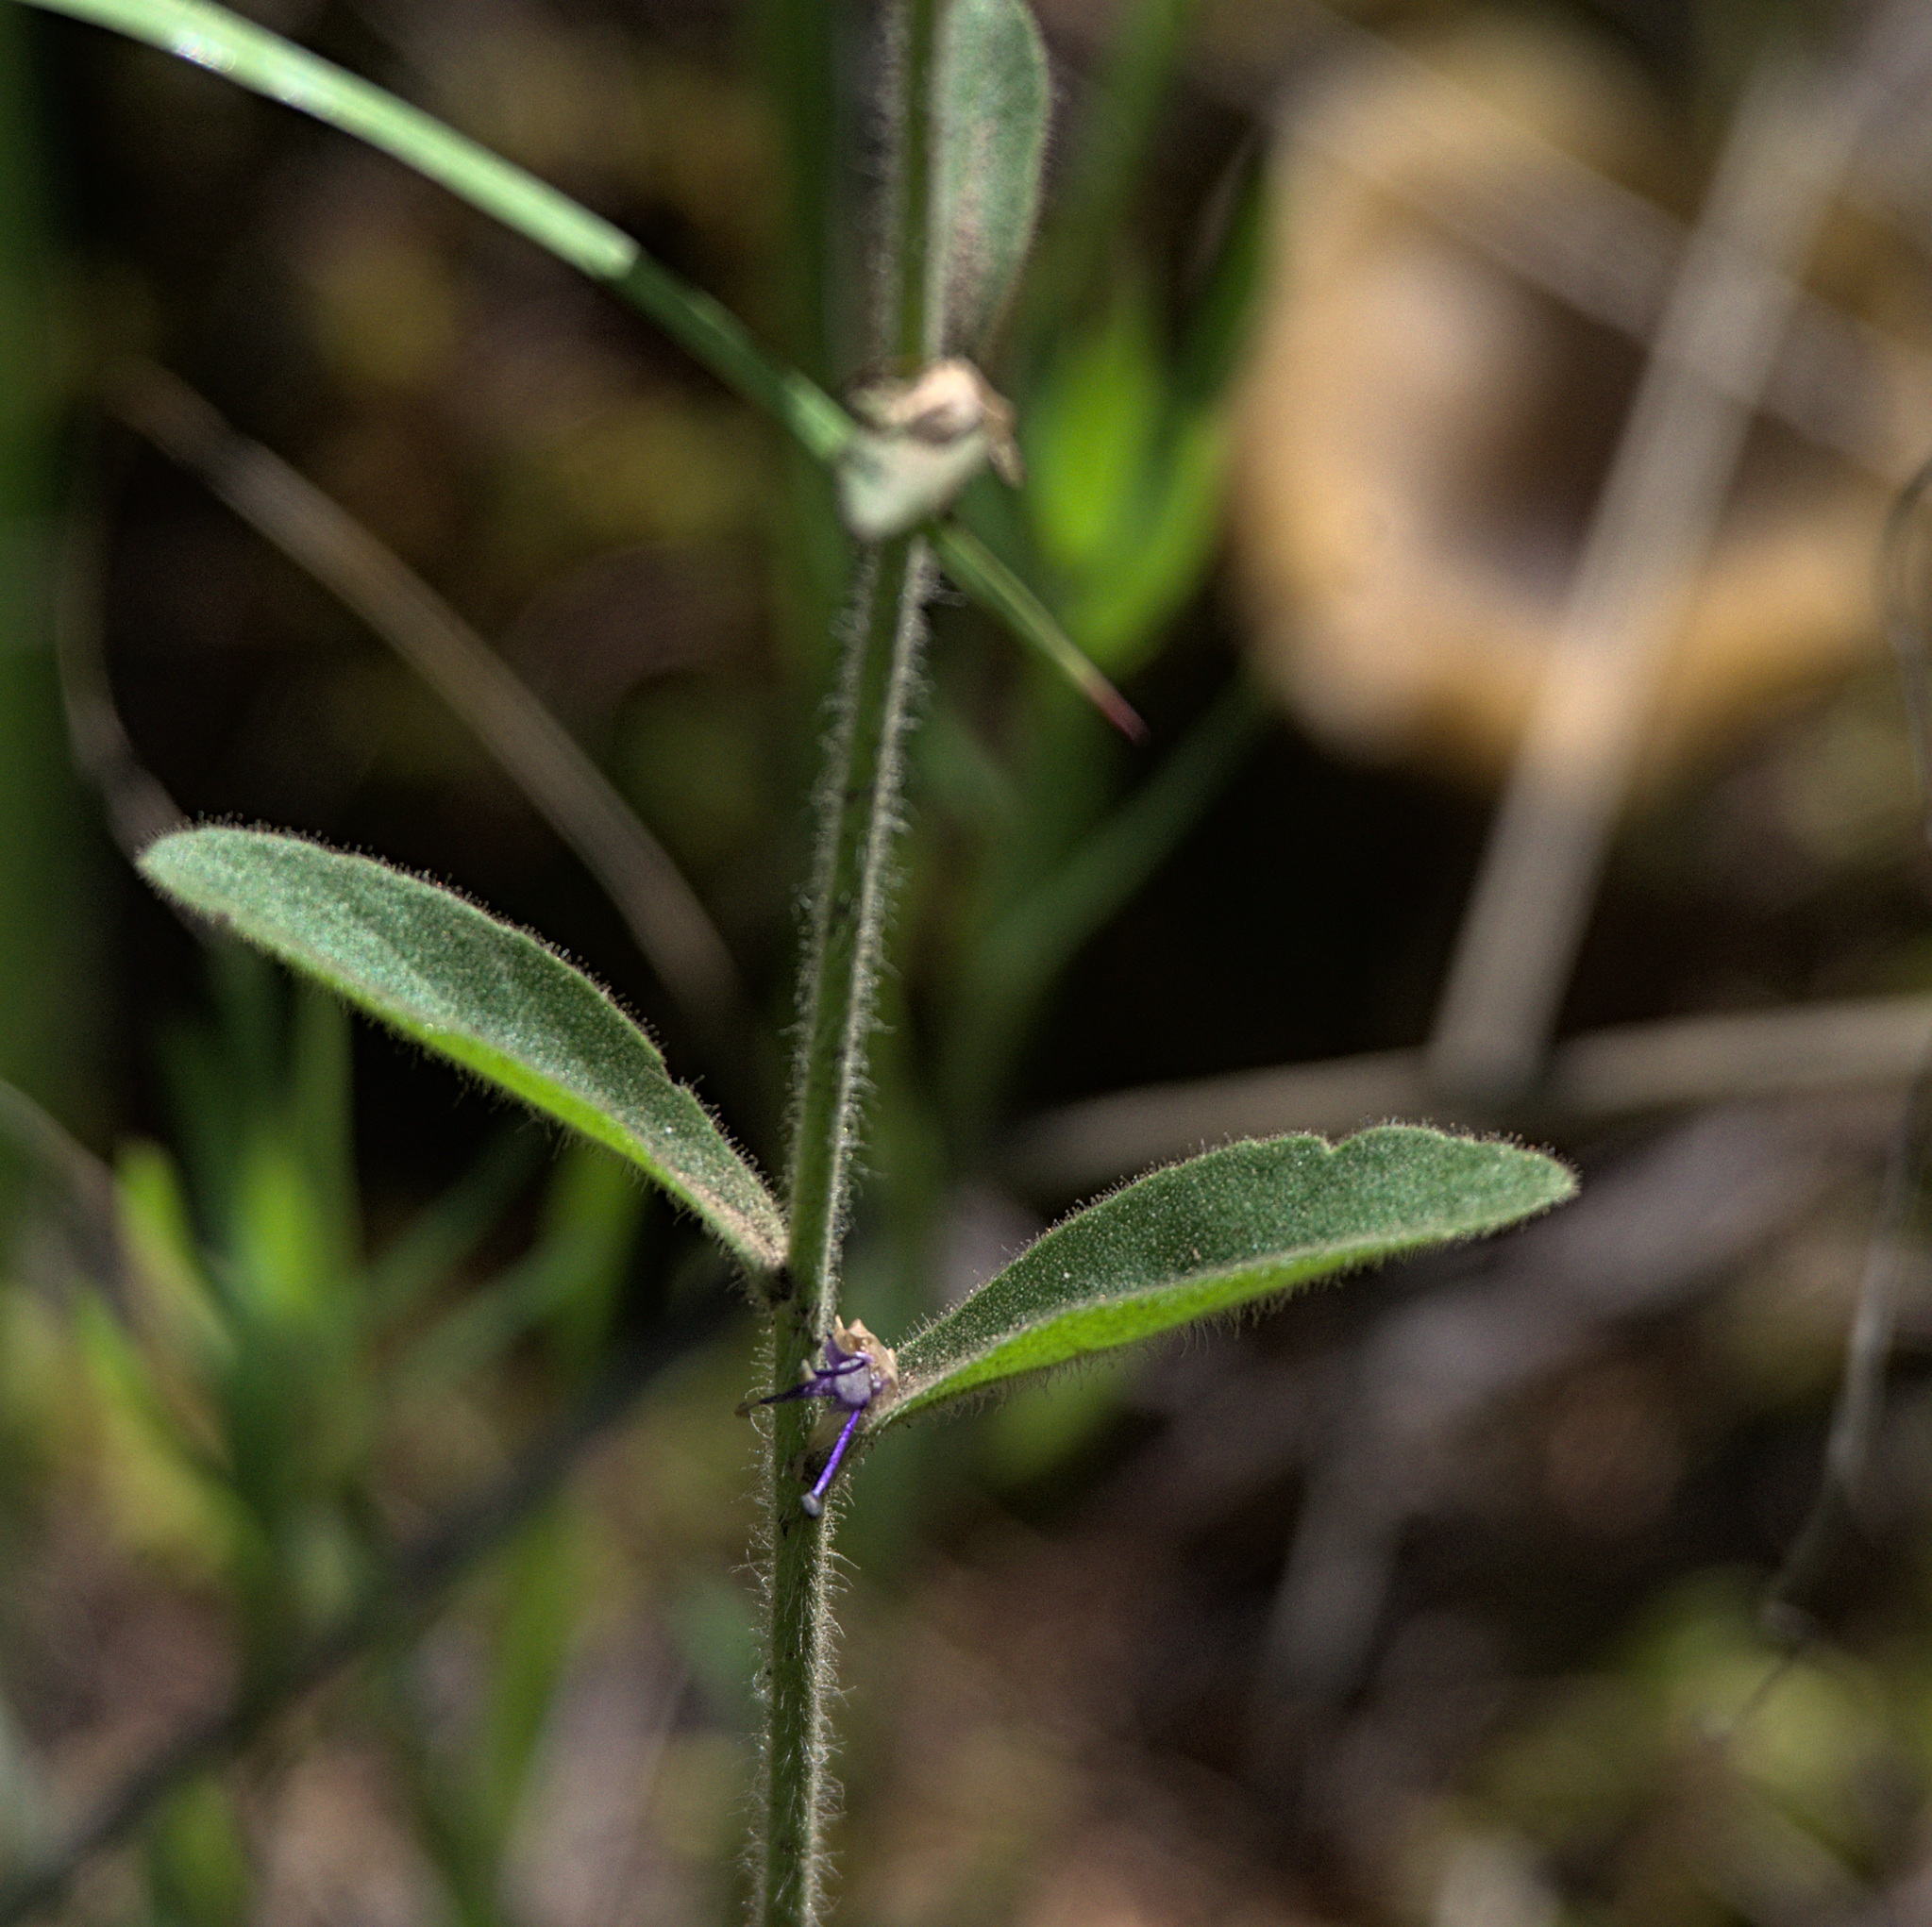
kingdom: Plantae
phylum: Tracheophyta
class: Magnoliopsida
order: Lamiales
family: Plantaginaceae
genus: Veronica
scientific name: Veronica porphyriana
